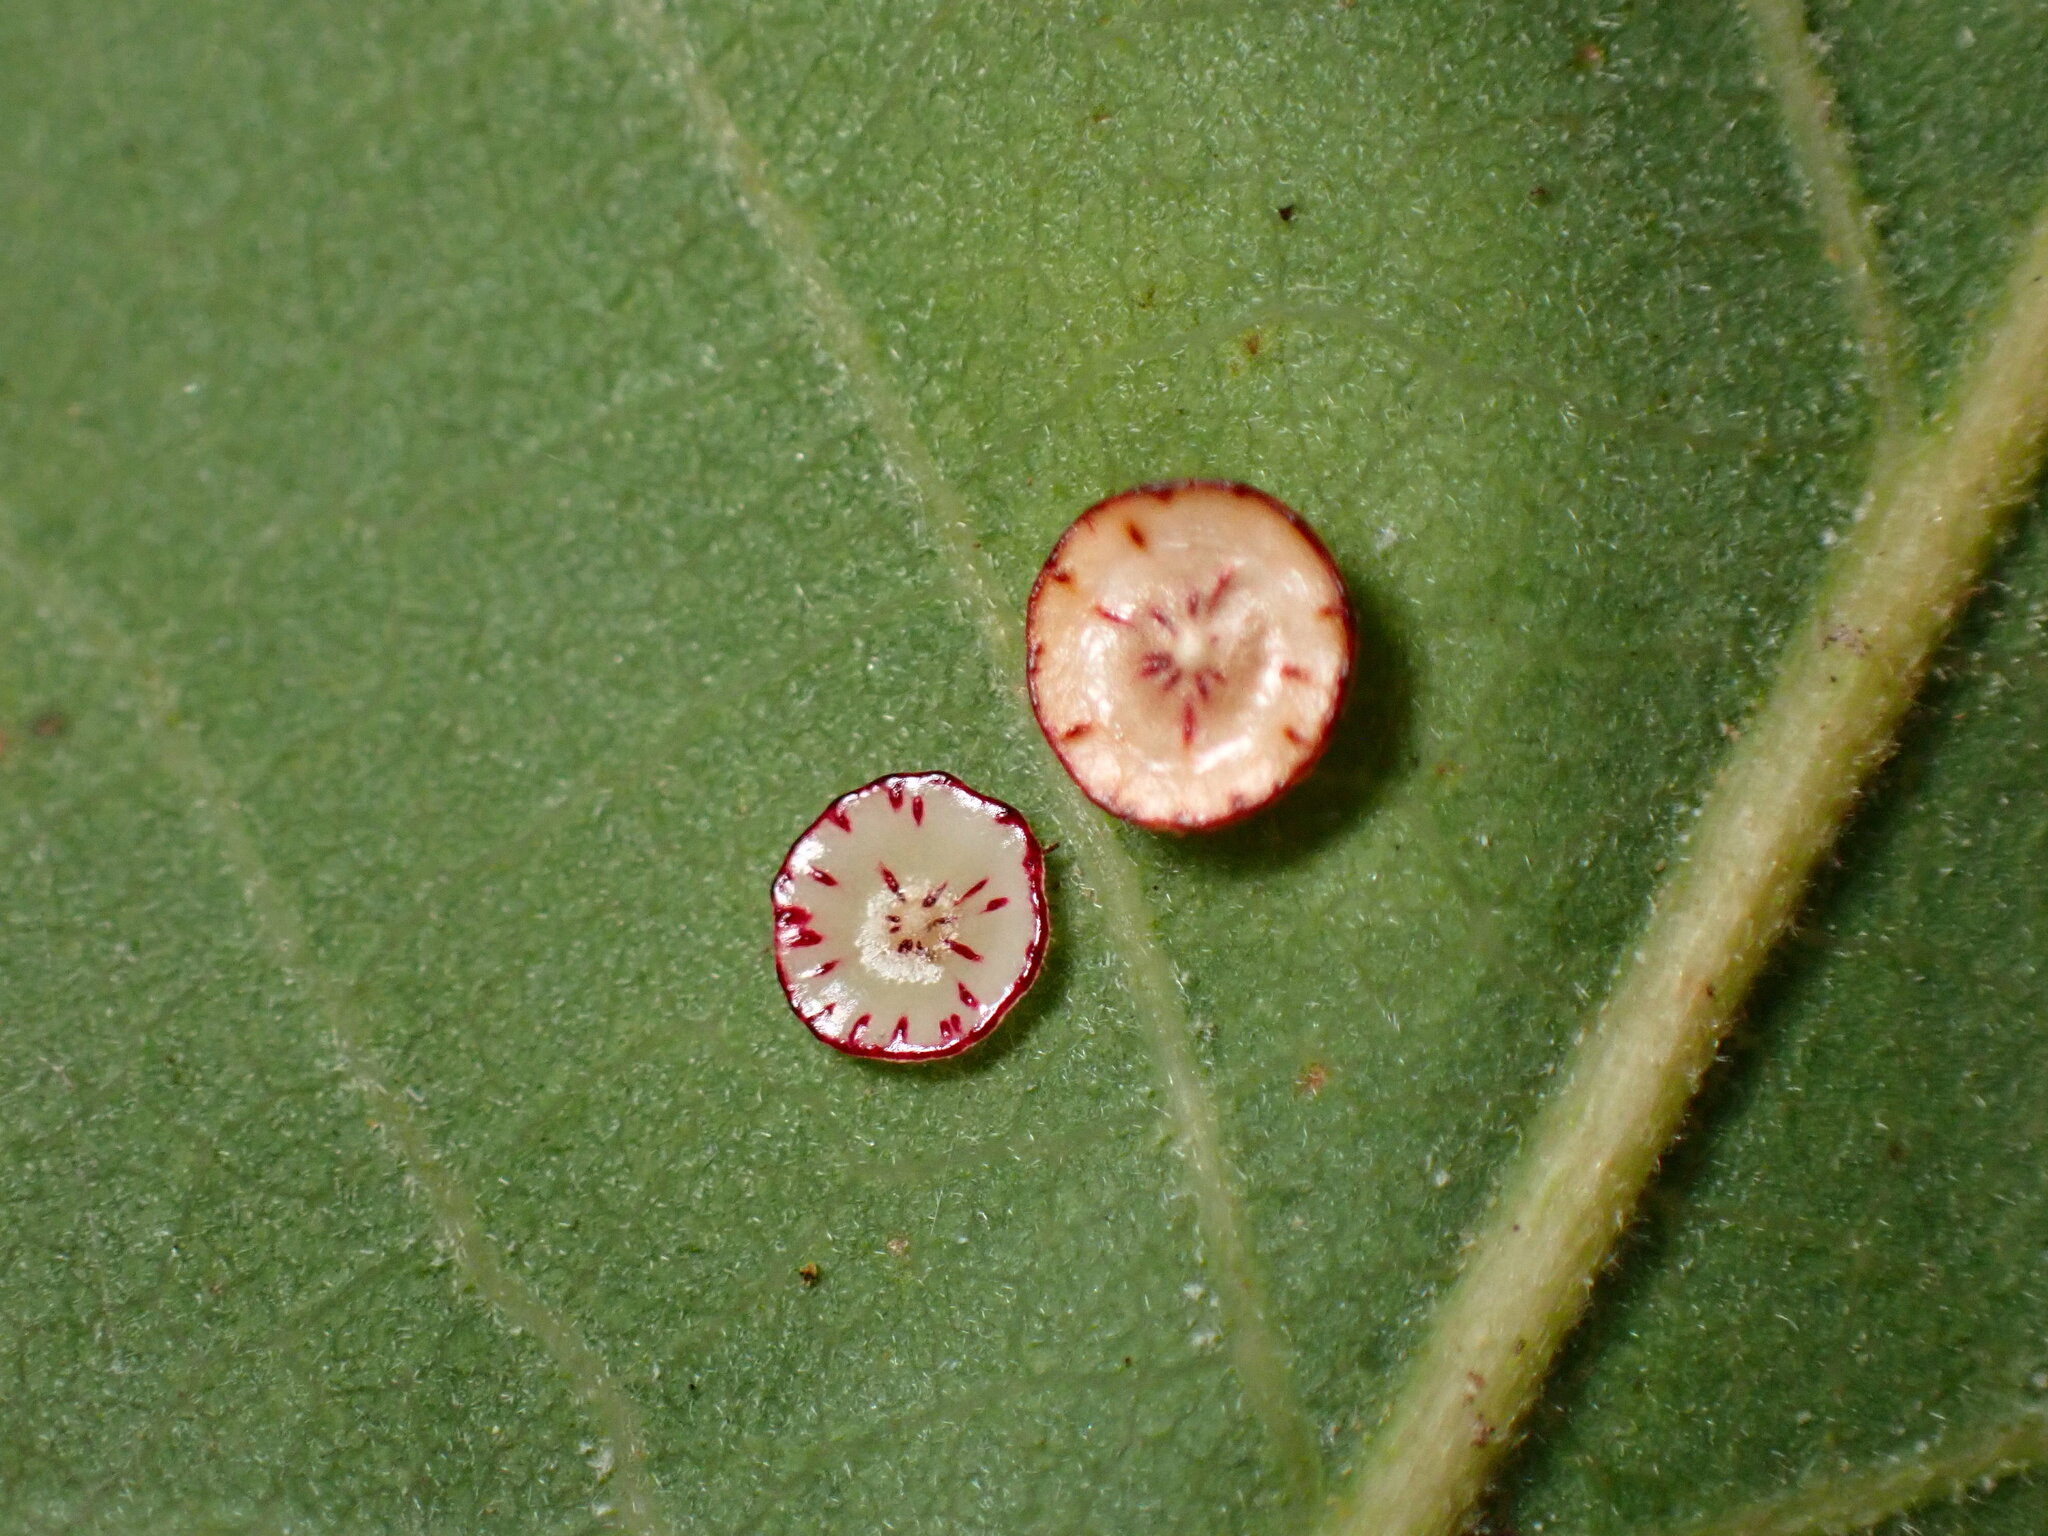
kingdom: Animalia
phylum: Arthropoda
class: Insecta
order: Hymenoptera
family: Cynipidae
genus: Andricus
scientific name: Andricus
